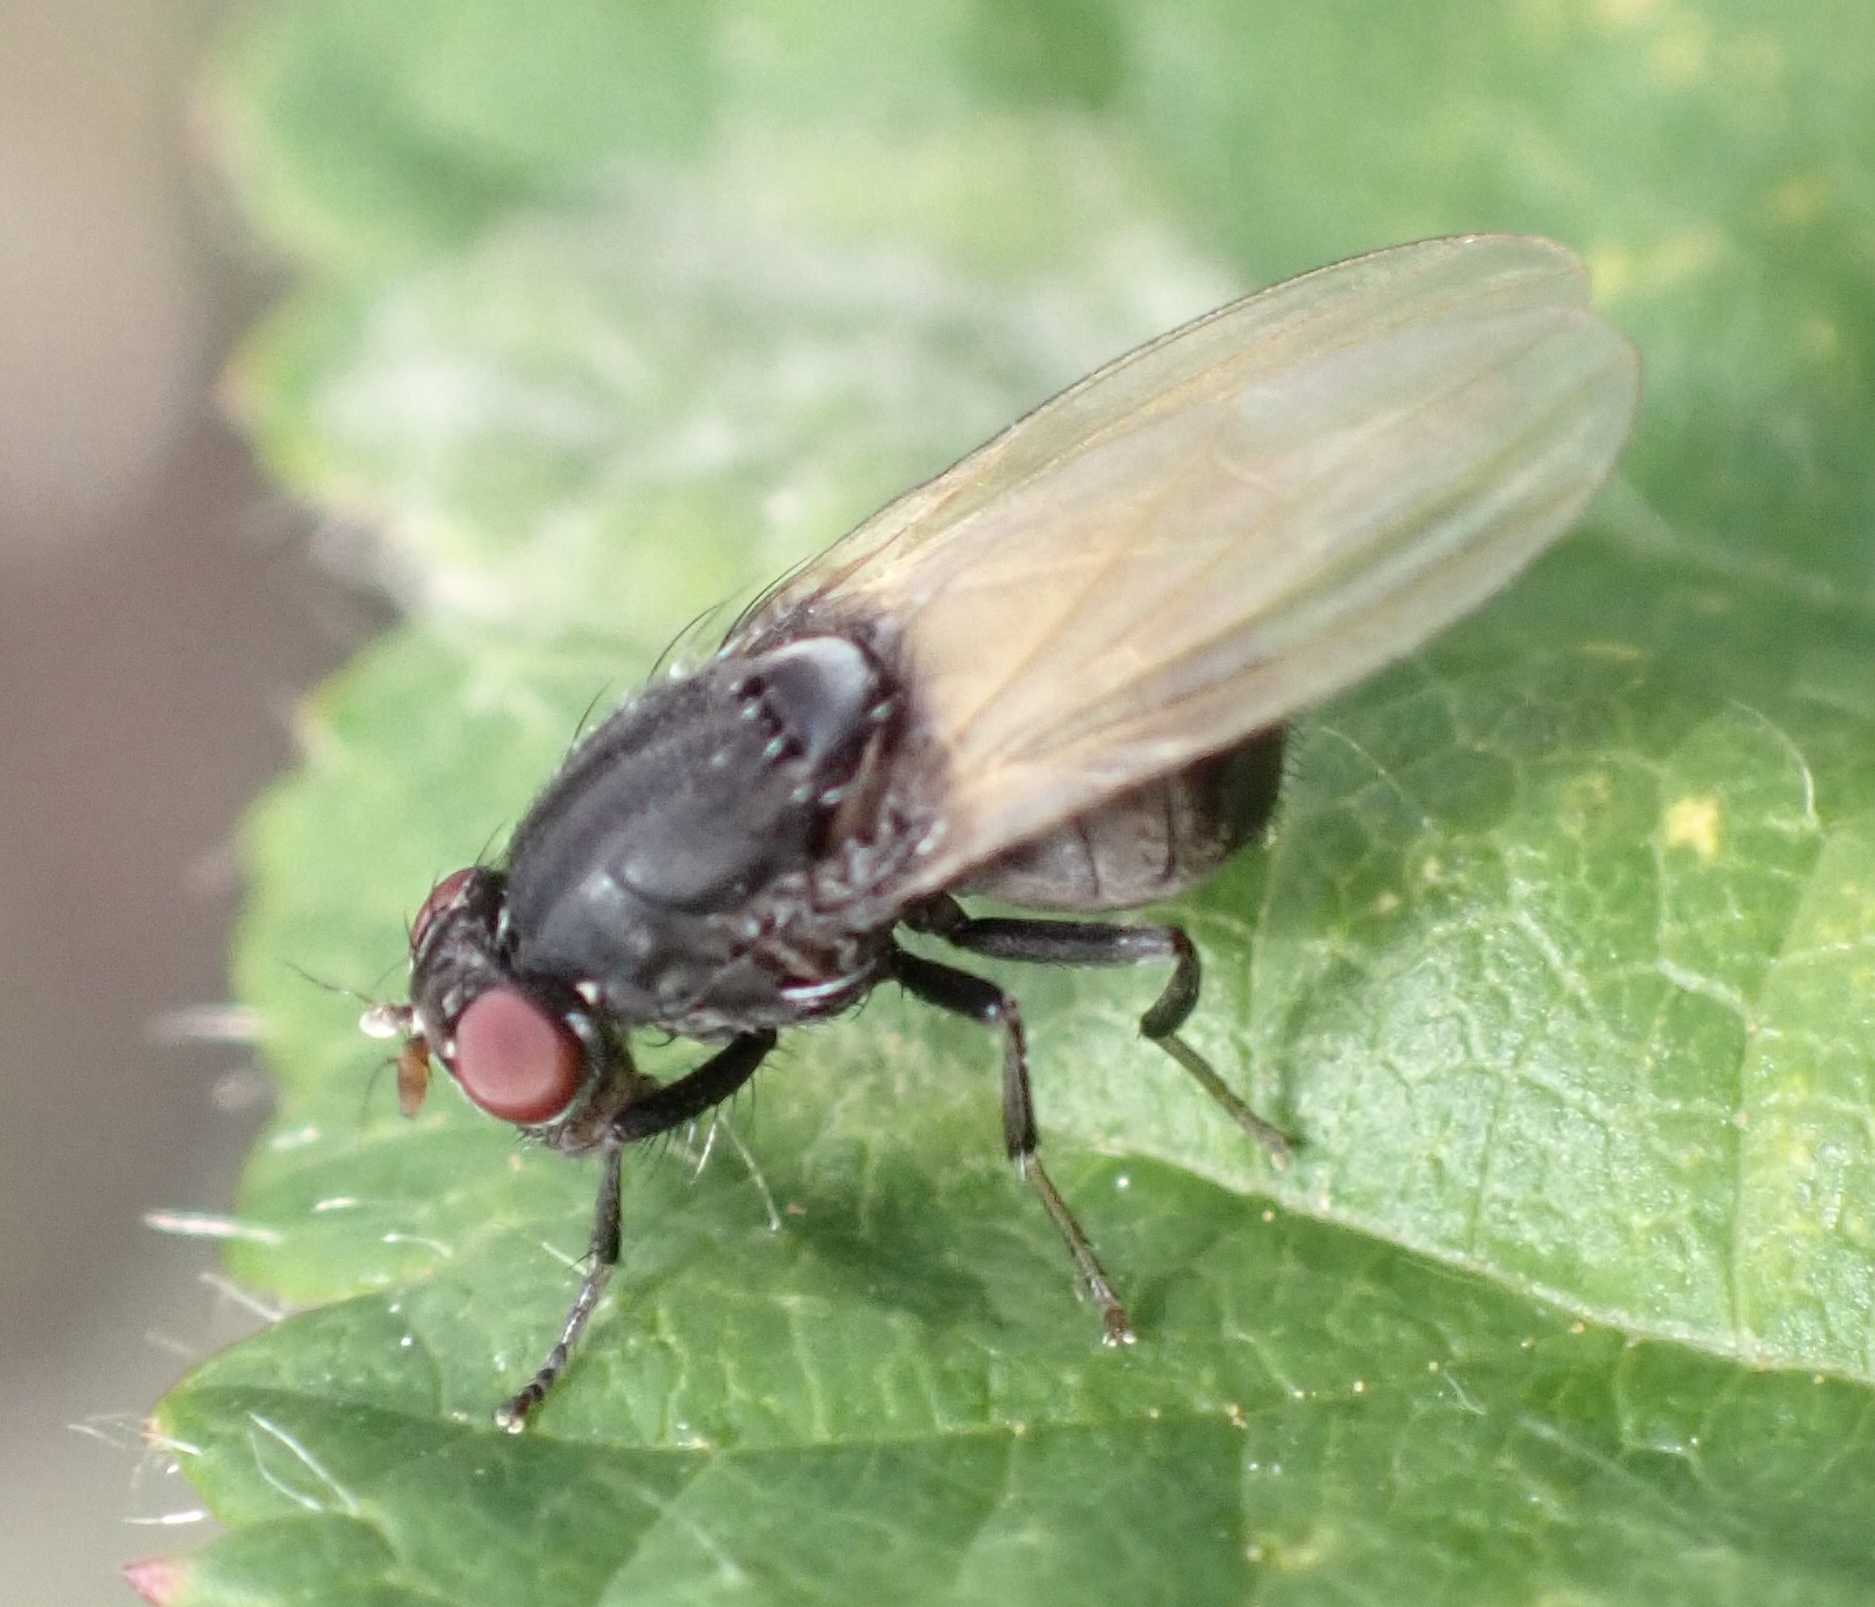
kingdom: Animalia
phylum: Arthropoda
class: Insecta
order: Diptera
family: Lauxaniidae
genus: Minettia
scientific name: Minettia longipennis
